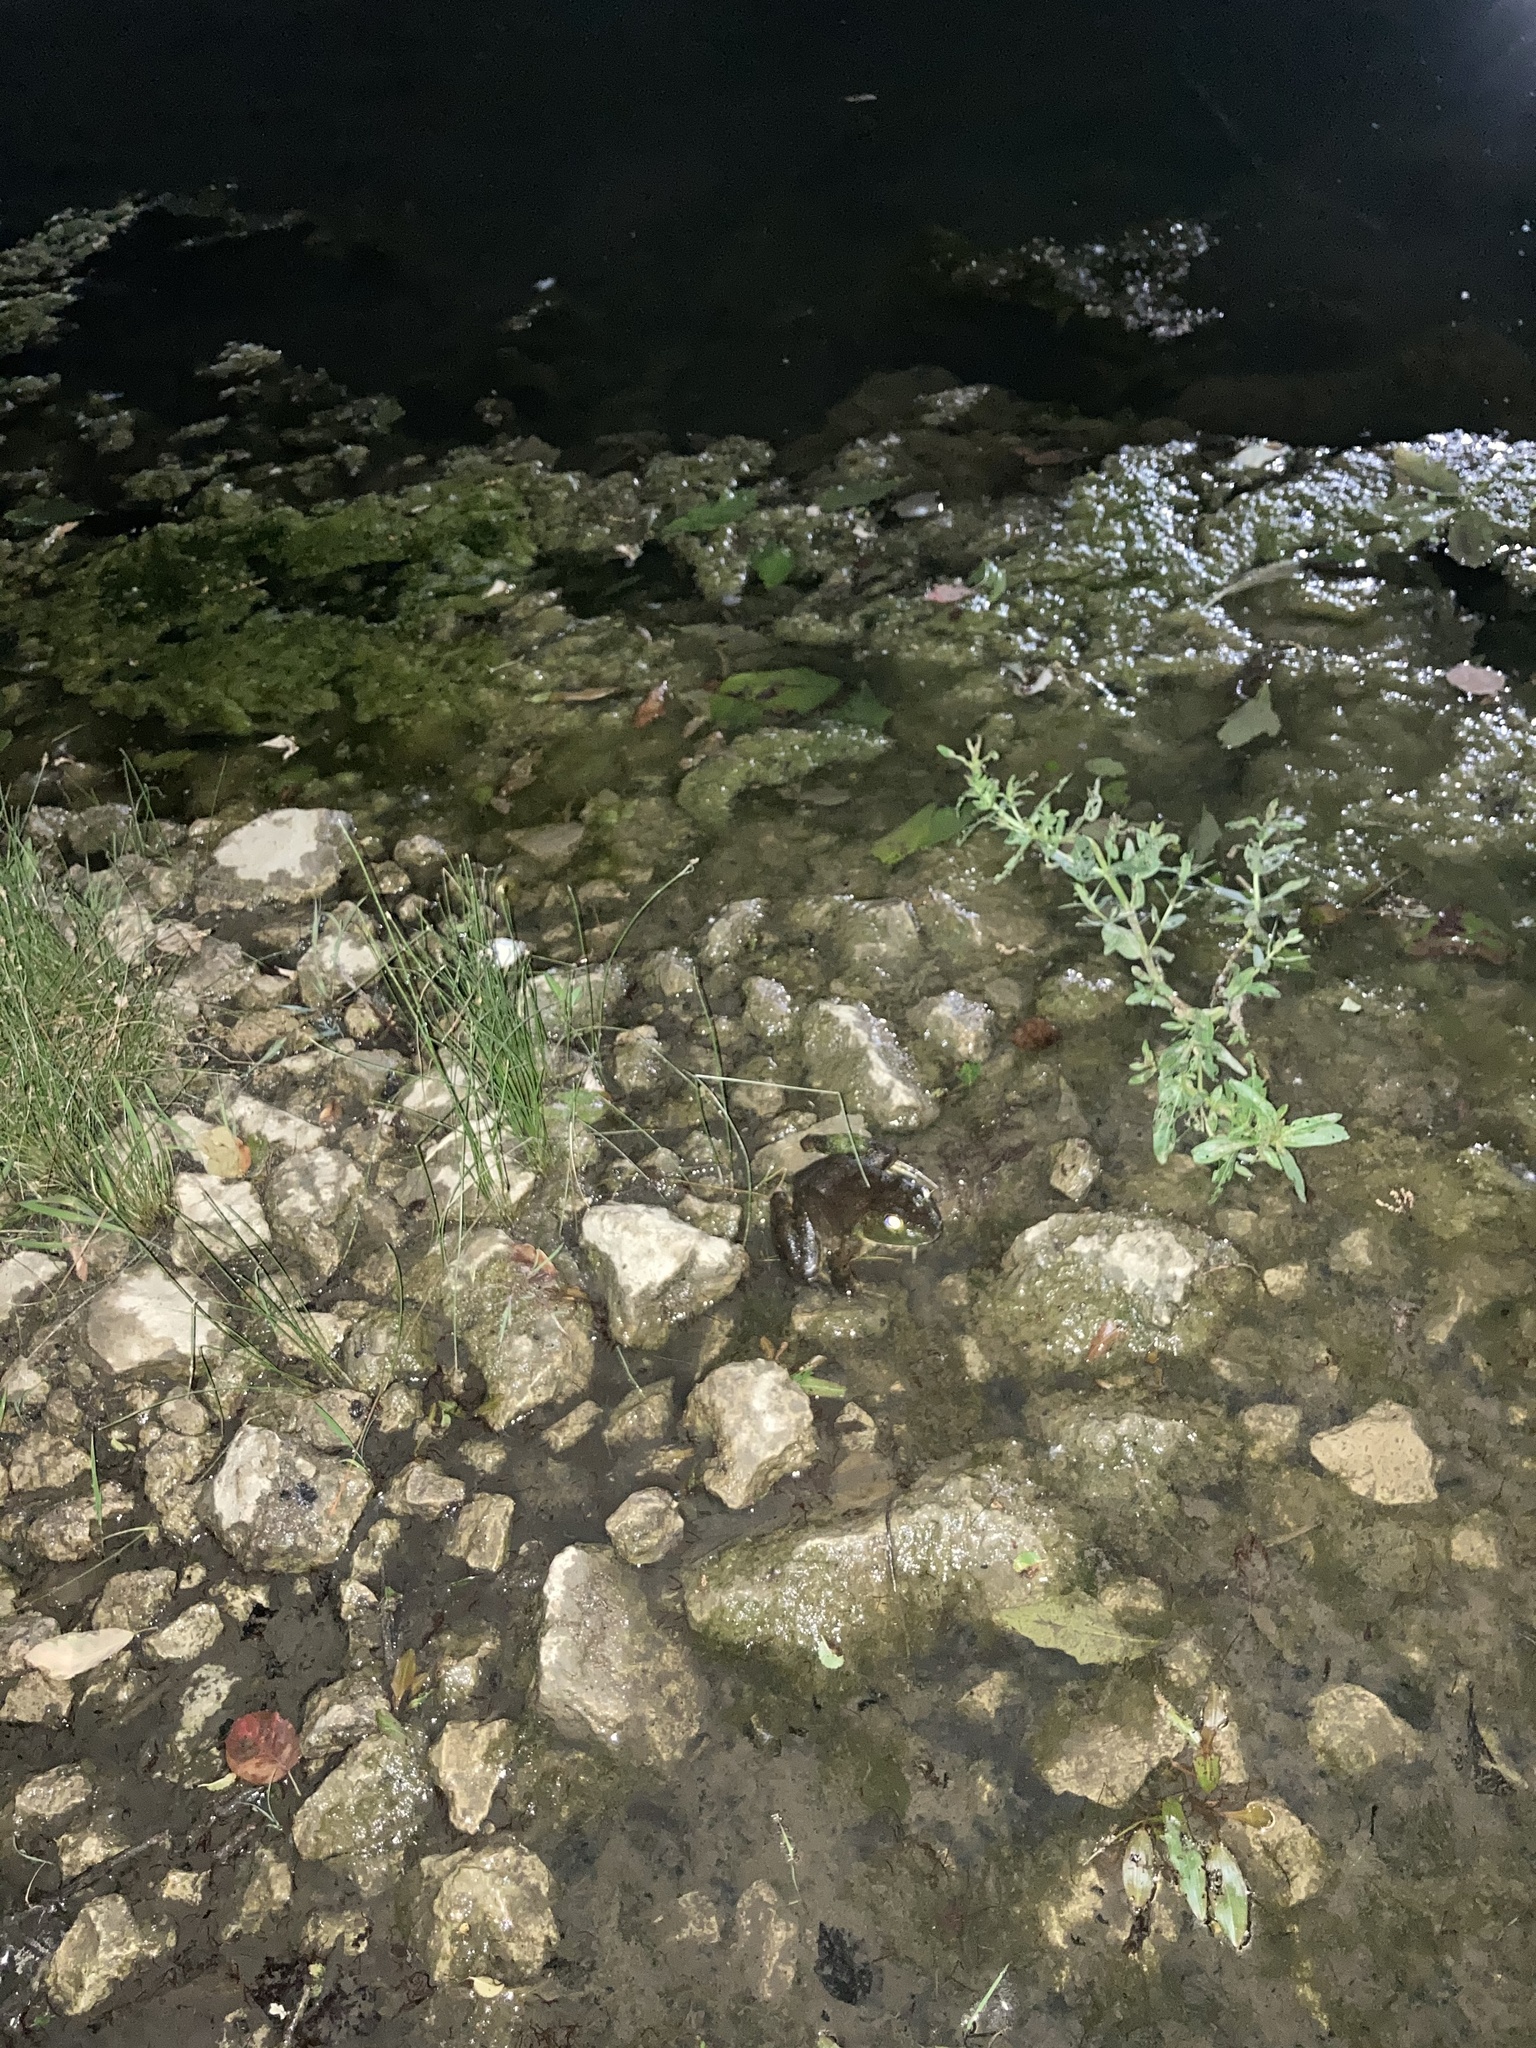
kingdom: Animalia
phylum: Chordata
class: Amphibia
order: Anura
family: Ranidae
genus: Lithobates
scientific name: Lithobates catesbeianus
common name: American bullfrog
